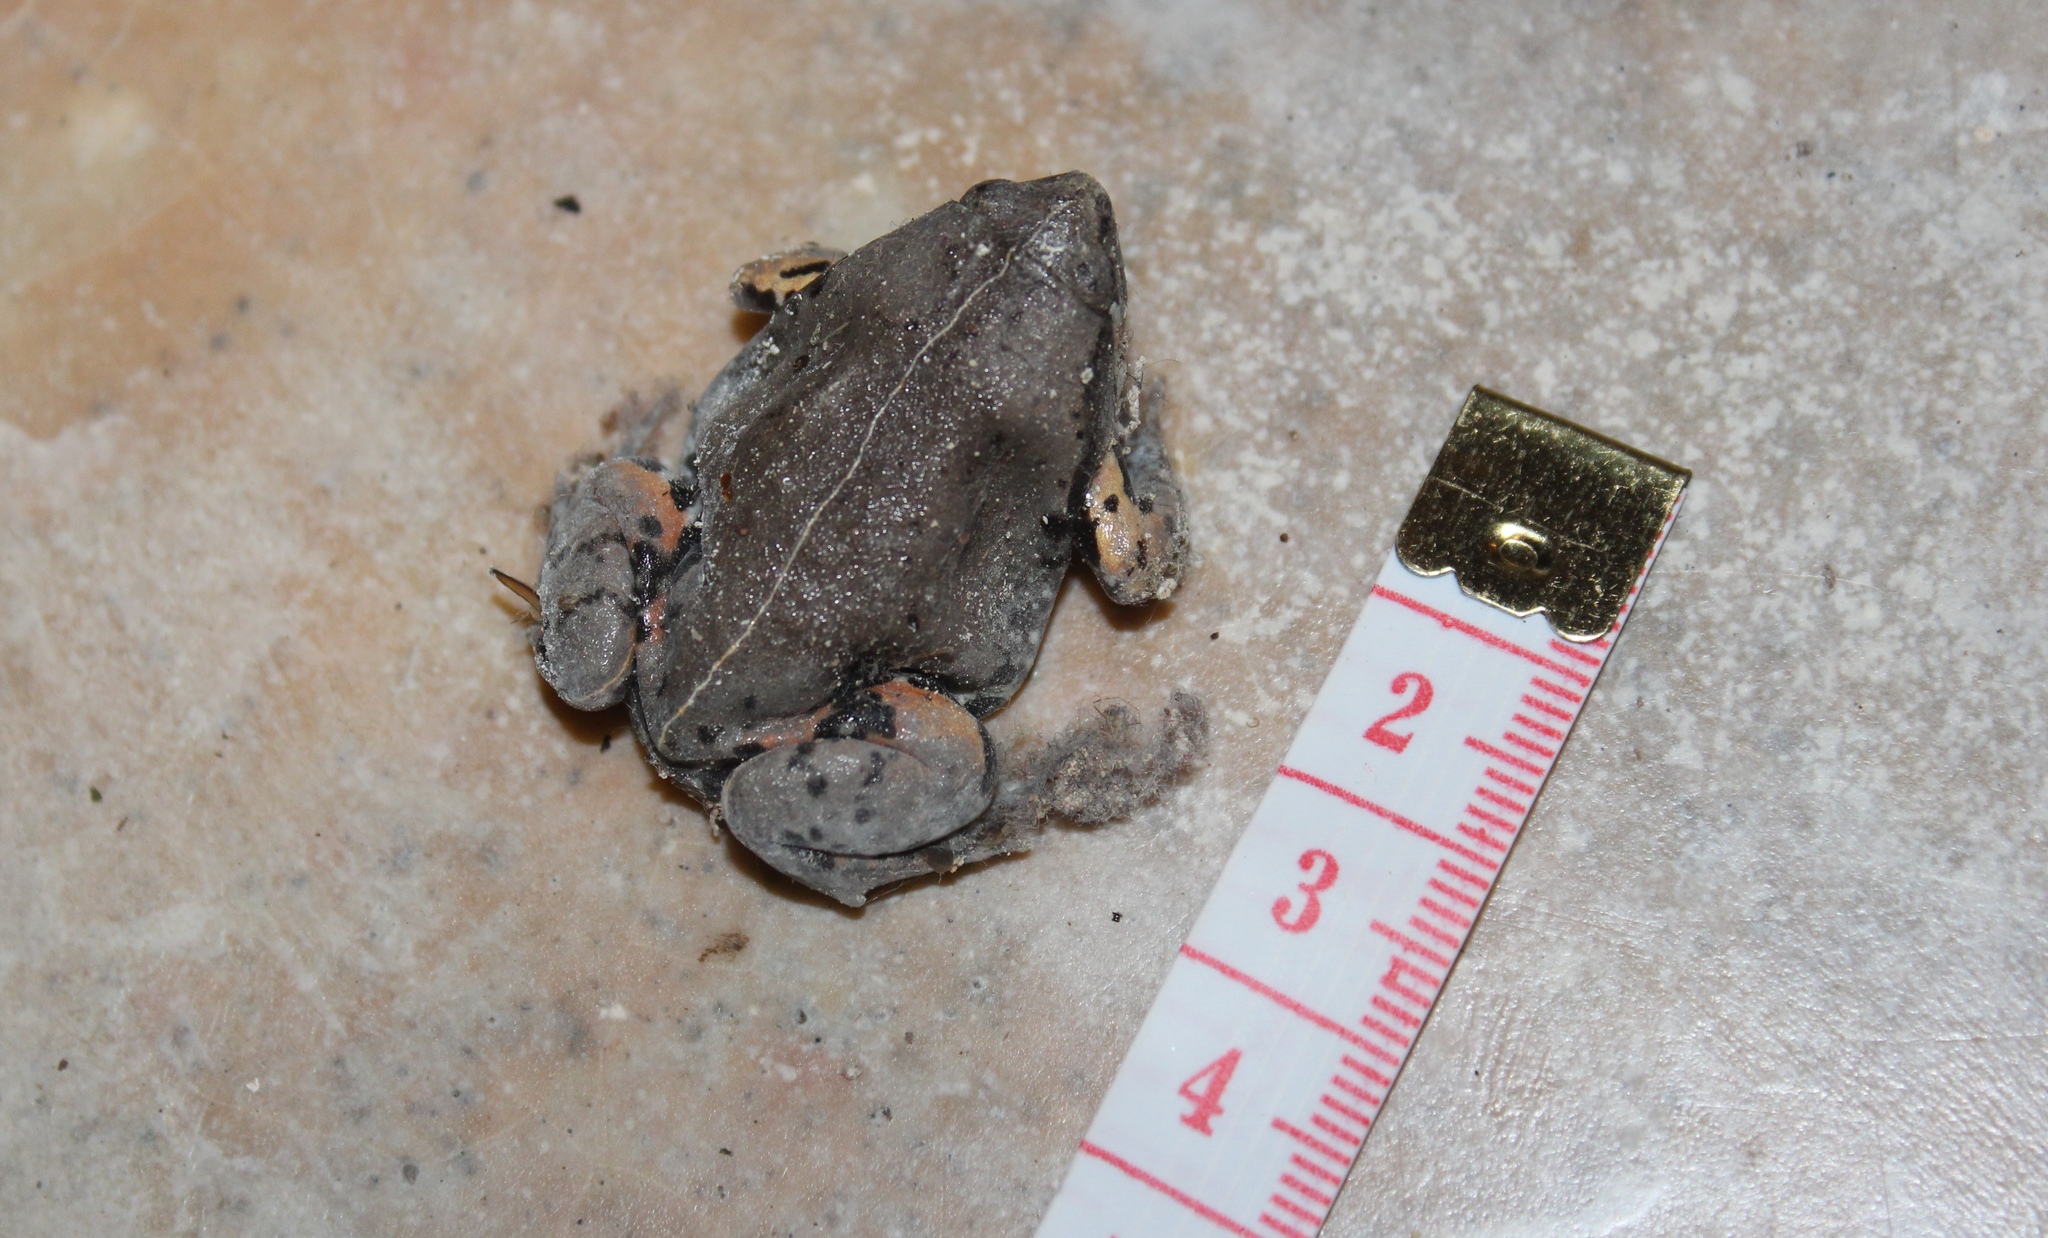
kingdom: Animalia
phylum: Chordata
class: Amphibia
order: Anura
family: Microhylidae
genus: Hypopachus
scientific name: Hypopachus variolosus
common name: Sheep frog
